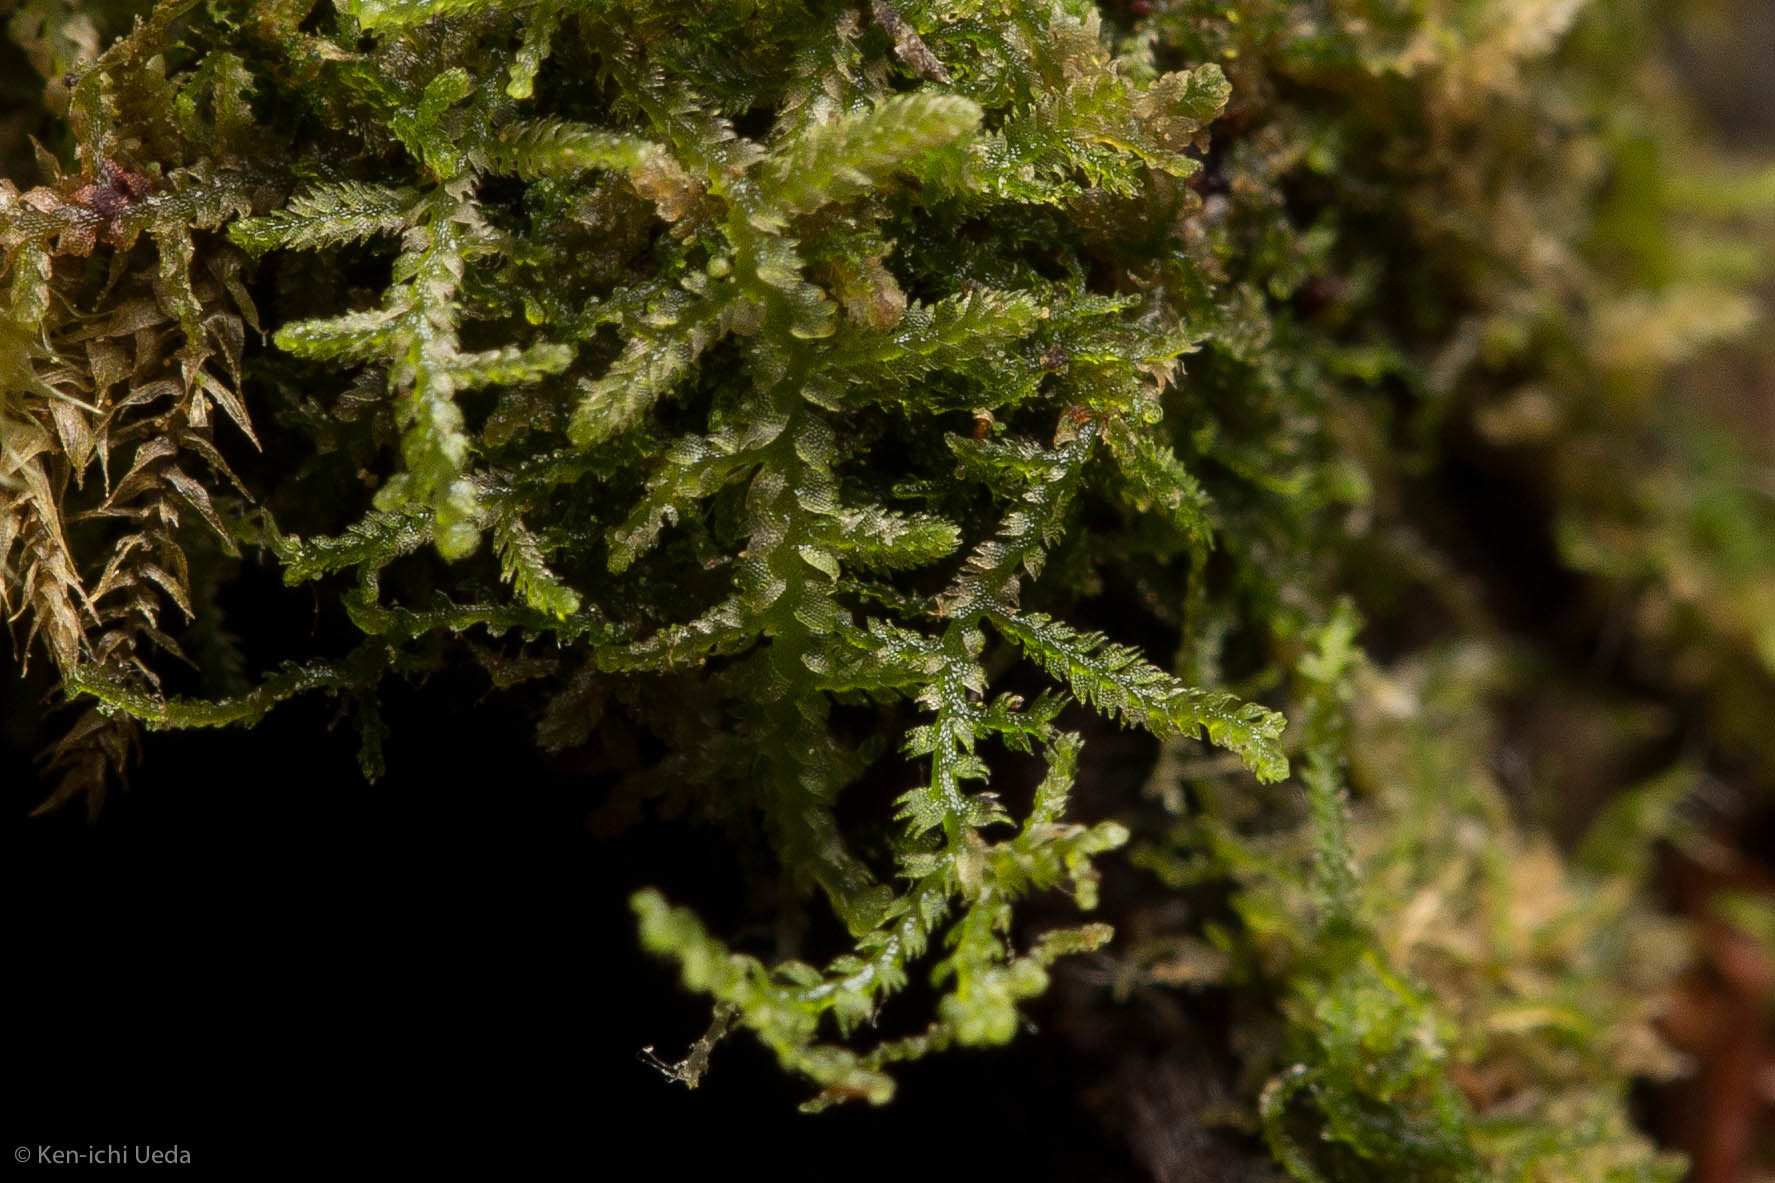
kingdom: Plantae
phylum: Marchantiophyta
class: Jungermanniopsida
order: Jungermanniales
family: Lepidoziaceae
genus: Lepidozia
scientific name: Lepidozia reptans
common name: Creeping fingerwort
